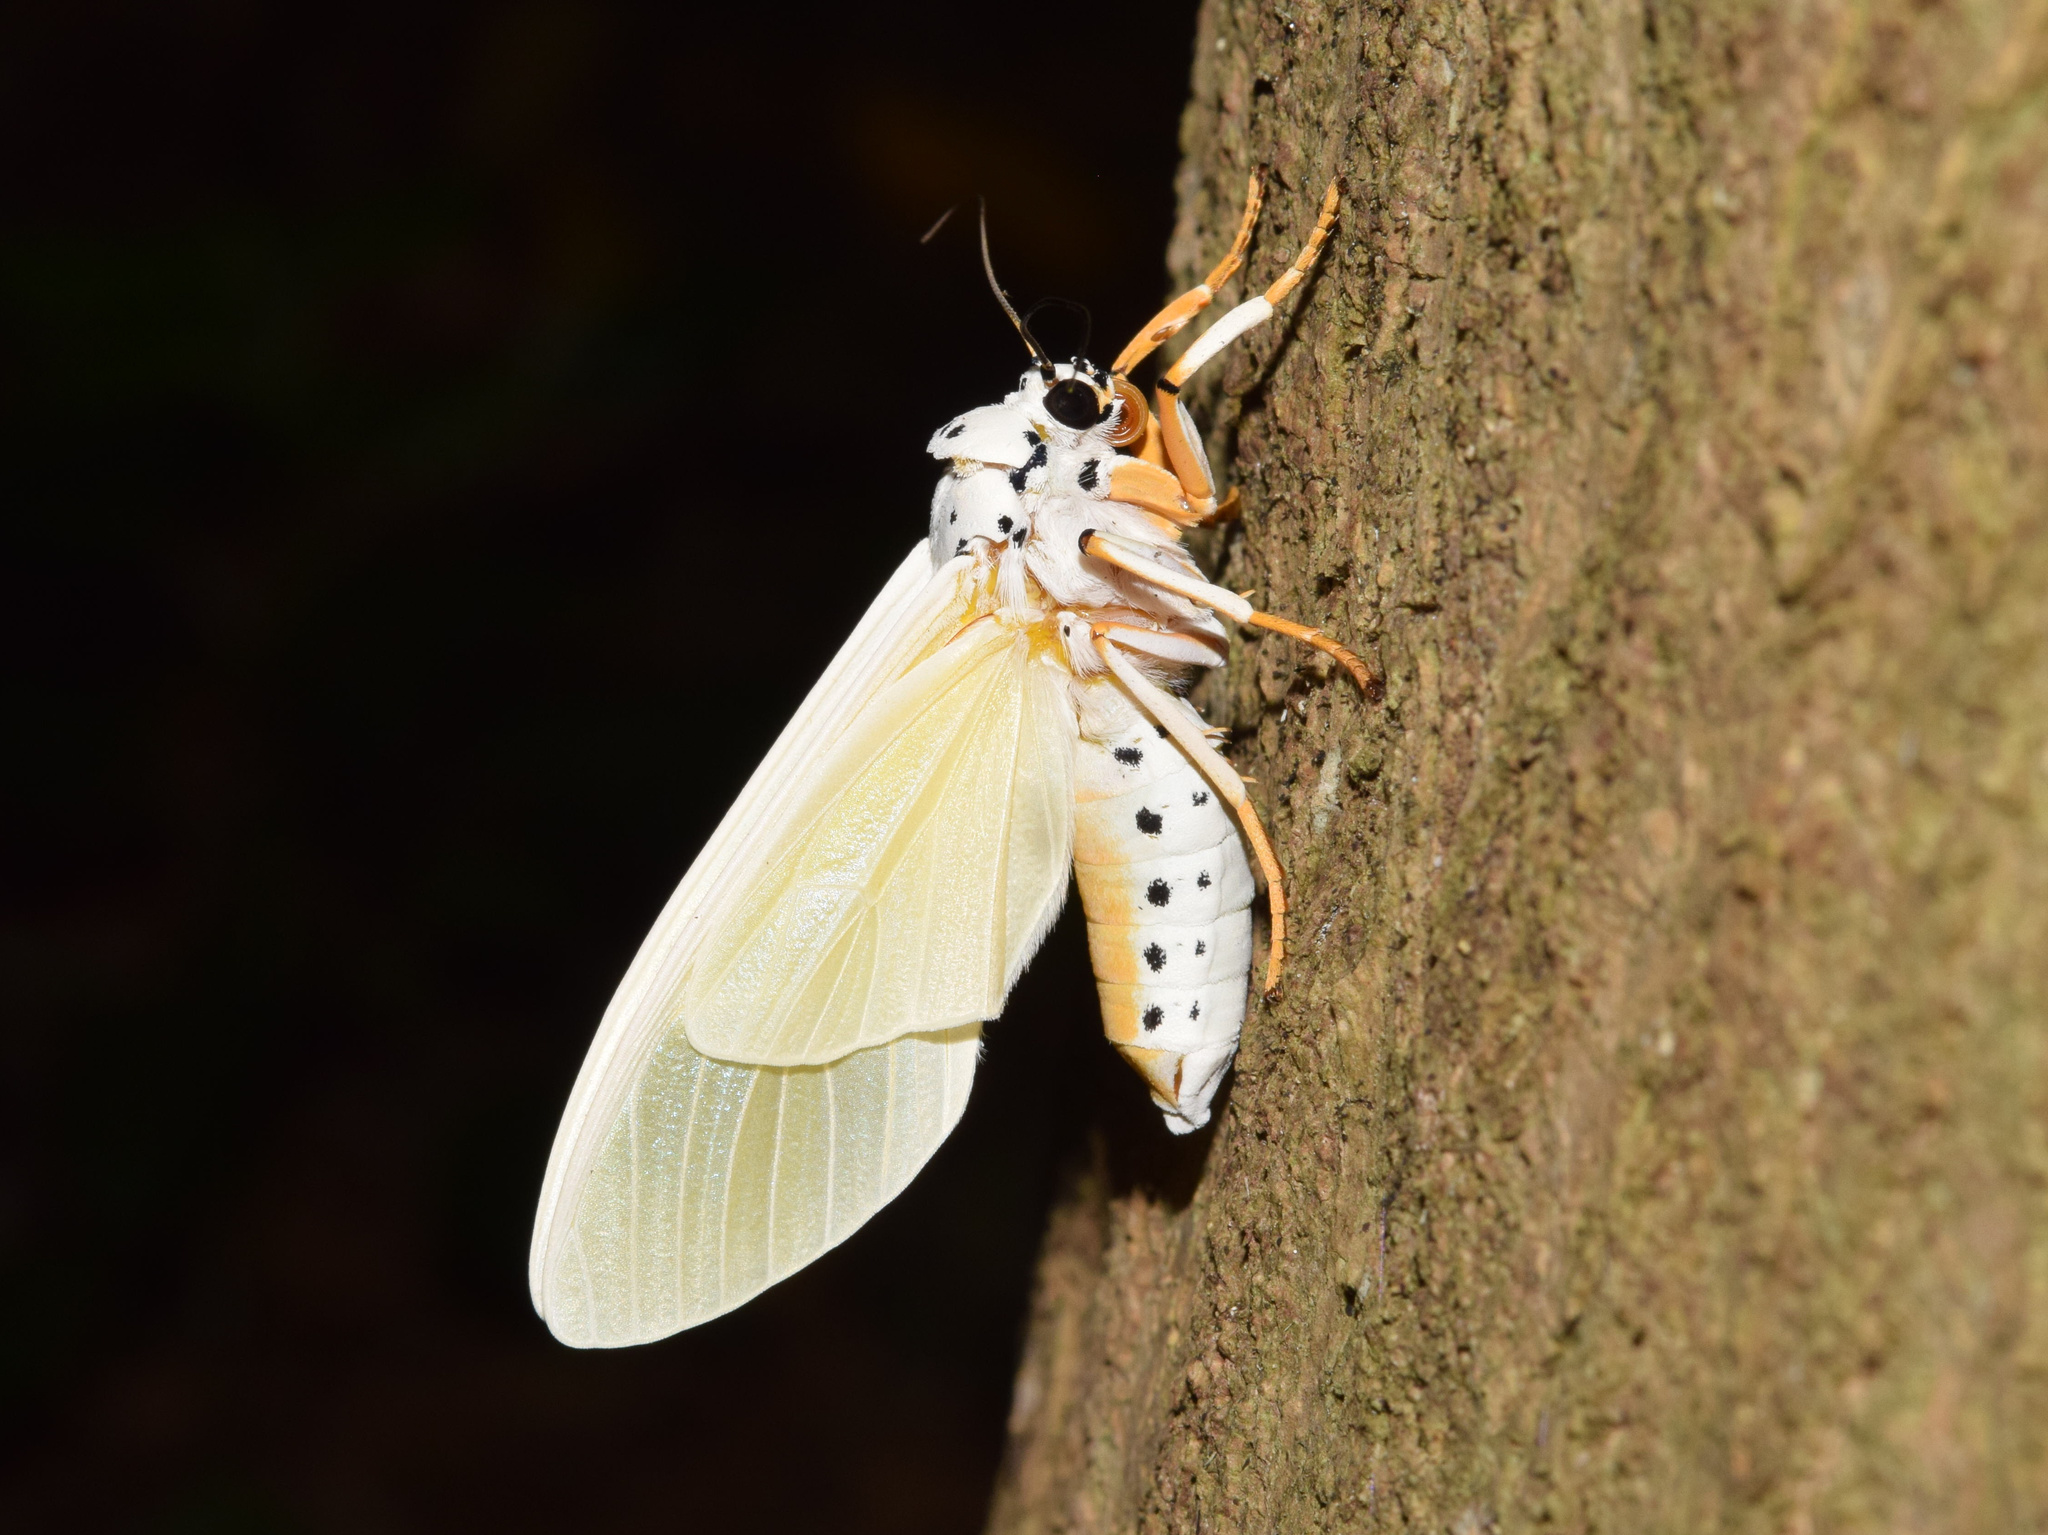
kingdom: Animalia
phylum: Arthropoda
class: Insecta
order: Lepidoptera
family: Erebidae
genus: Amerila
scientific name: Amerila bubo
